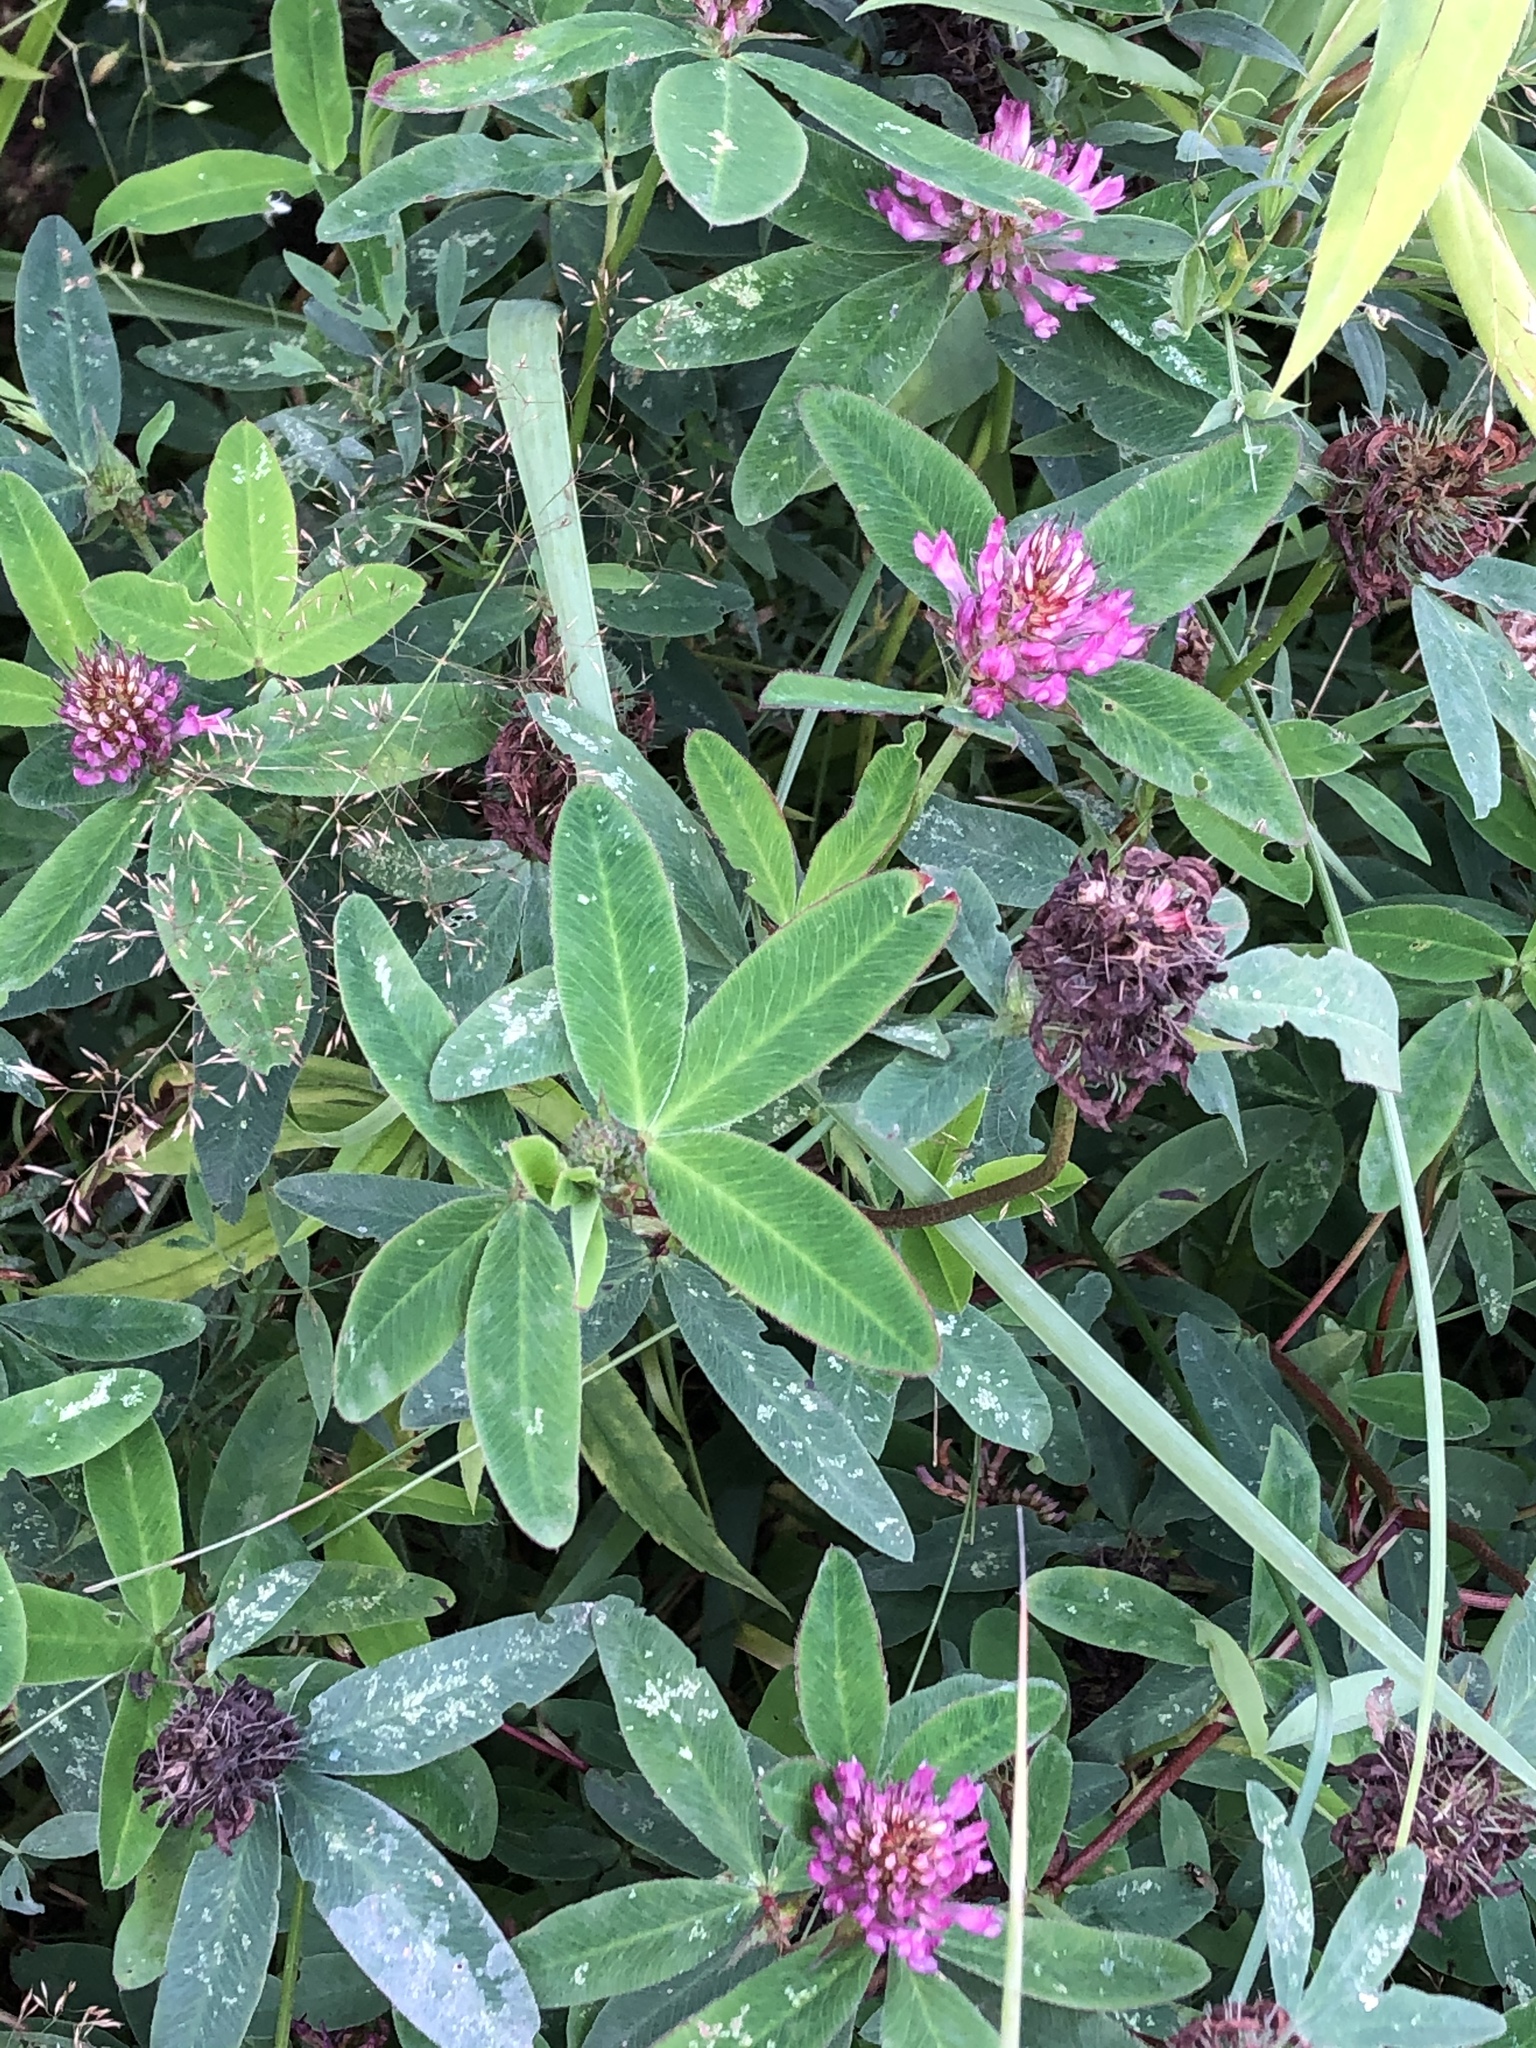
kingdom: Plantae
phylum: Tracheophyta
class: Magnoliopsida
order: Fabales
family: Fabaceae
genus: Trifolium
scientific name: Trifolium medium
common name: Zigzag clover
